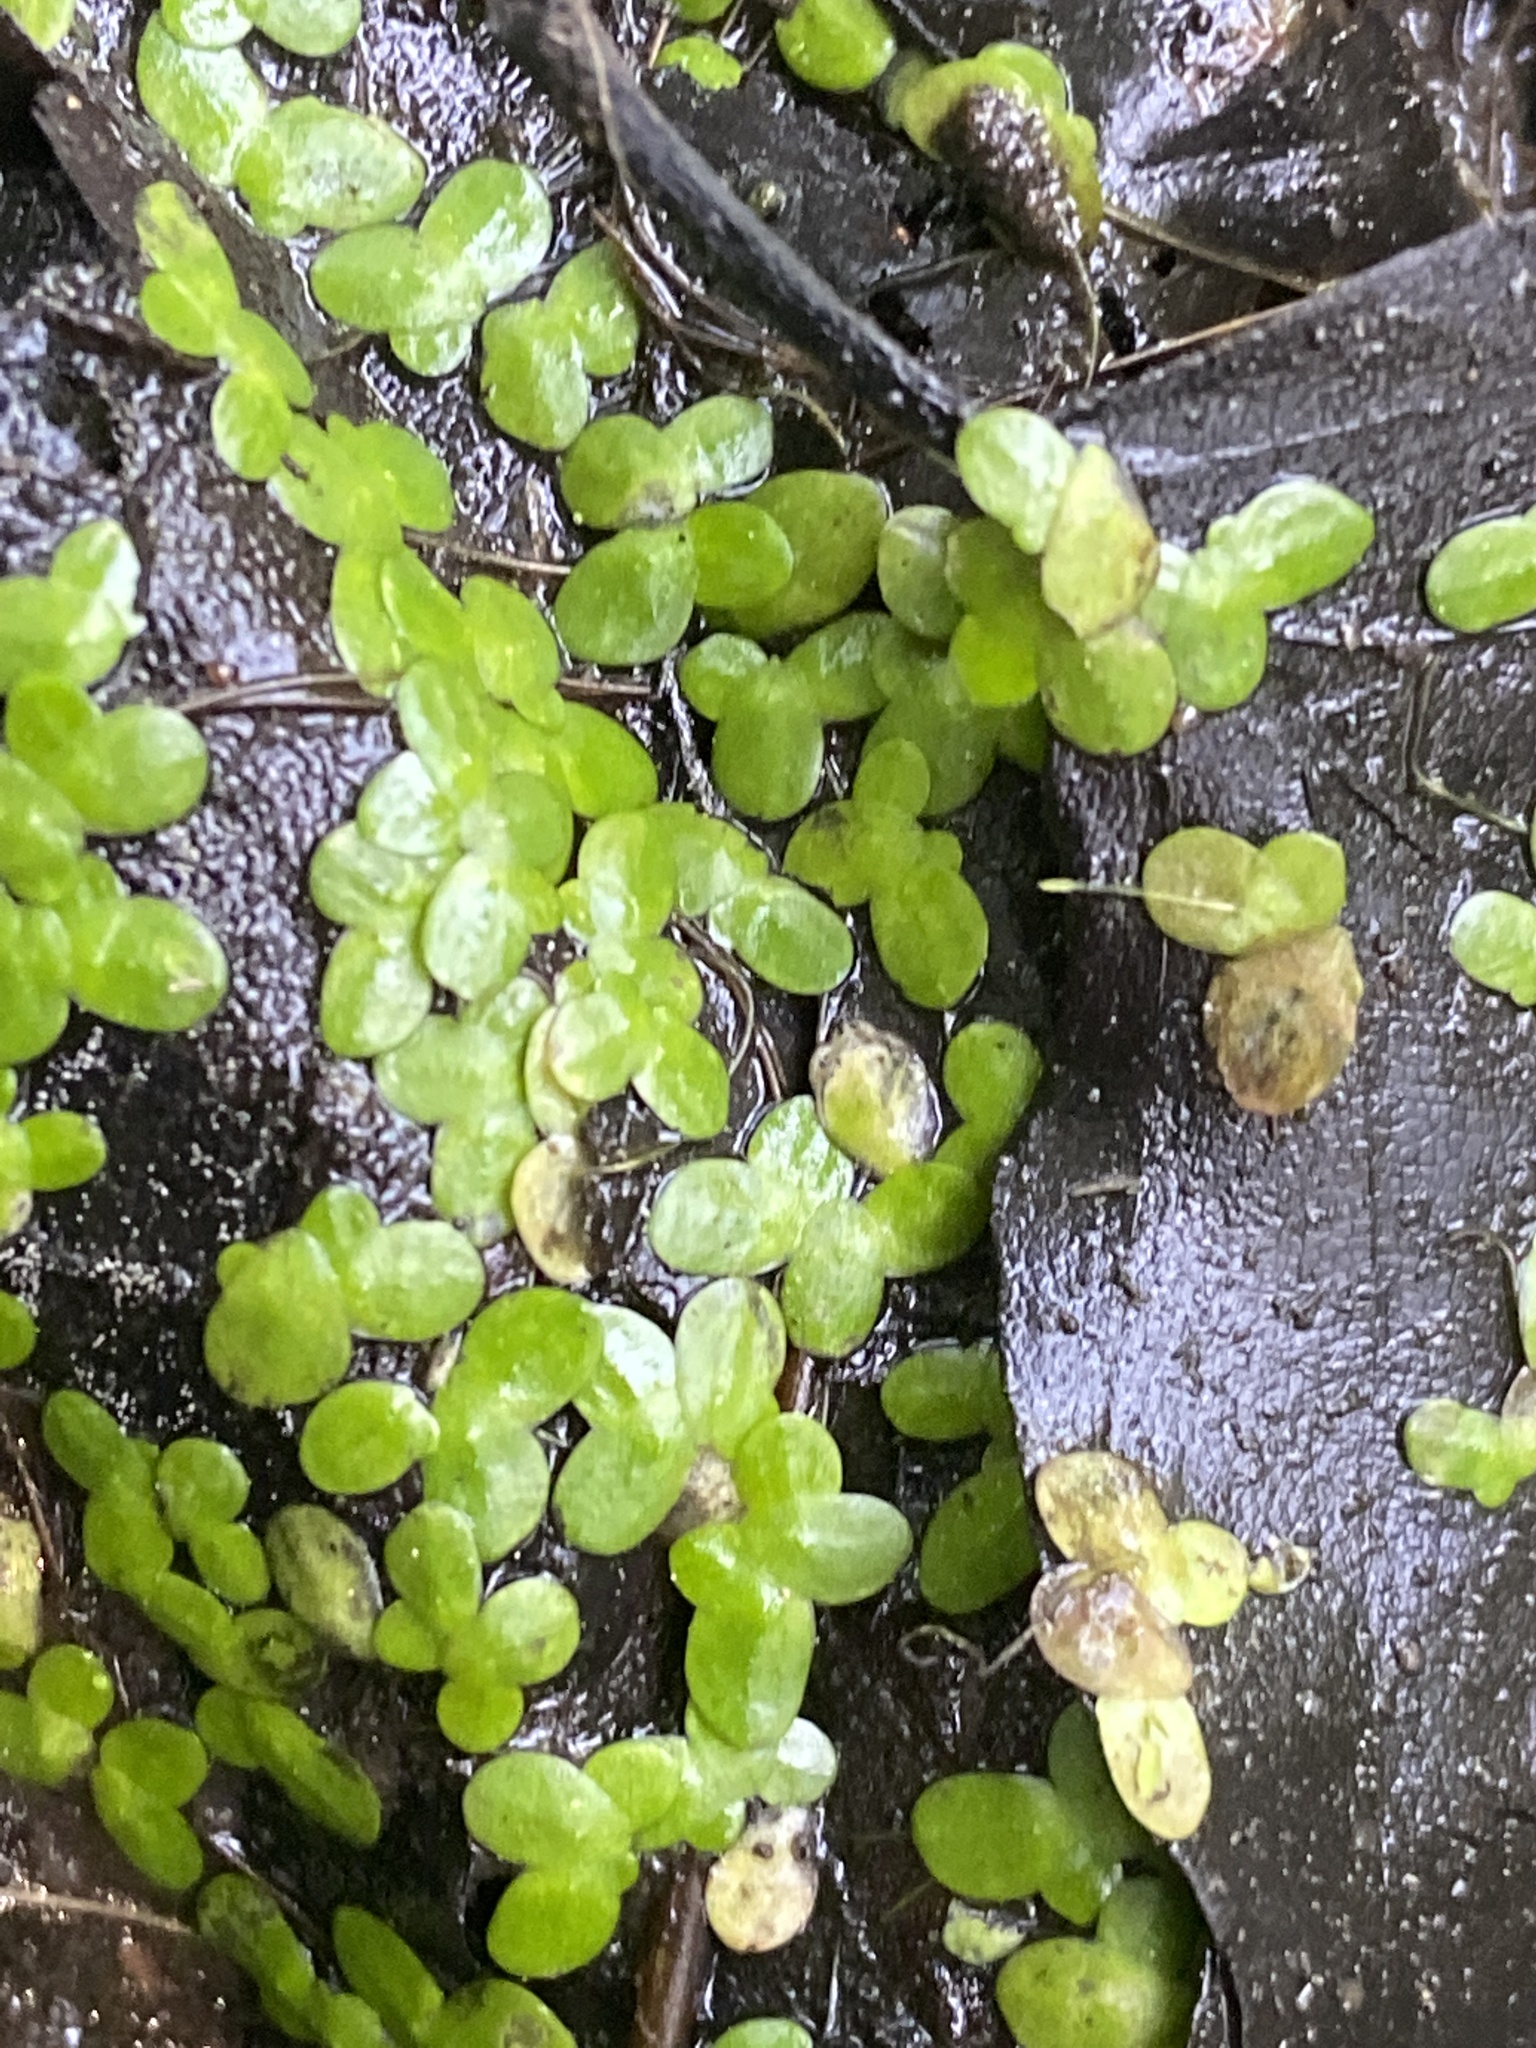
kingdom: Plantae
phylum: Tracheophyta
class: Liliopsida
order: Alismatales
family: Araceae
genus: Lemna
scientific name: Lemna minor
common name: Common duckweed
